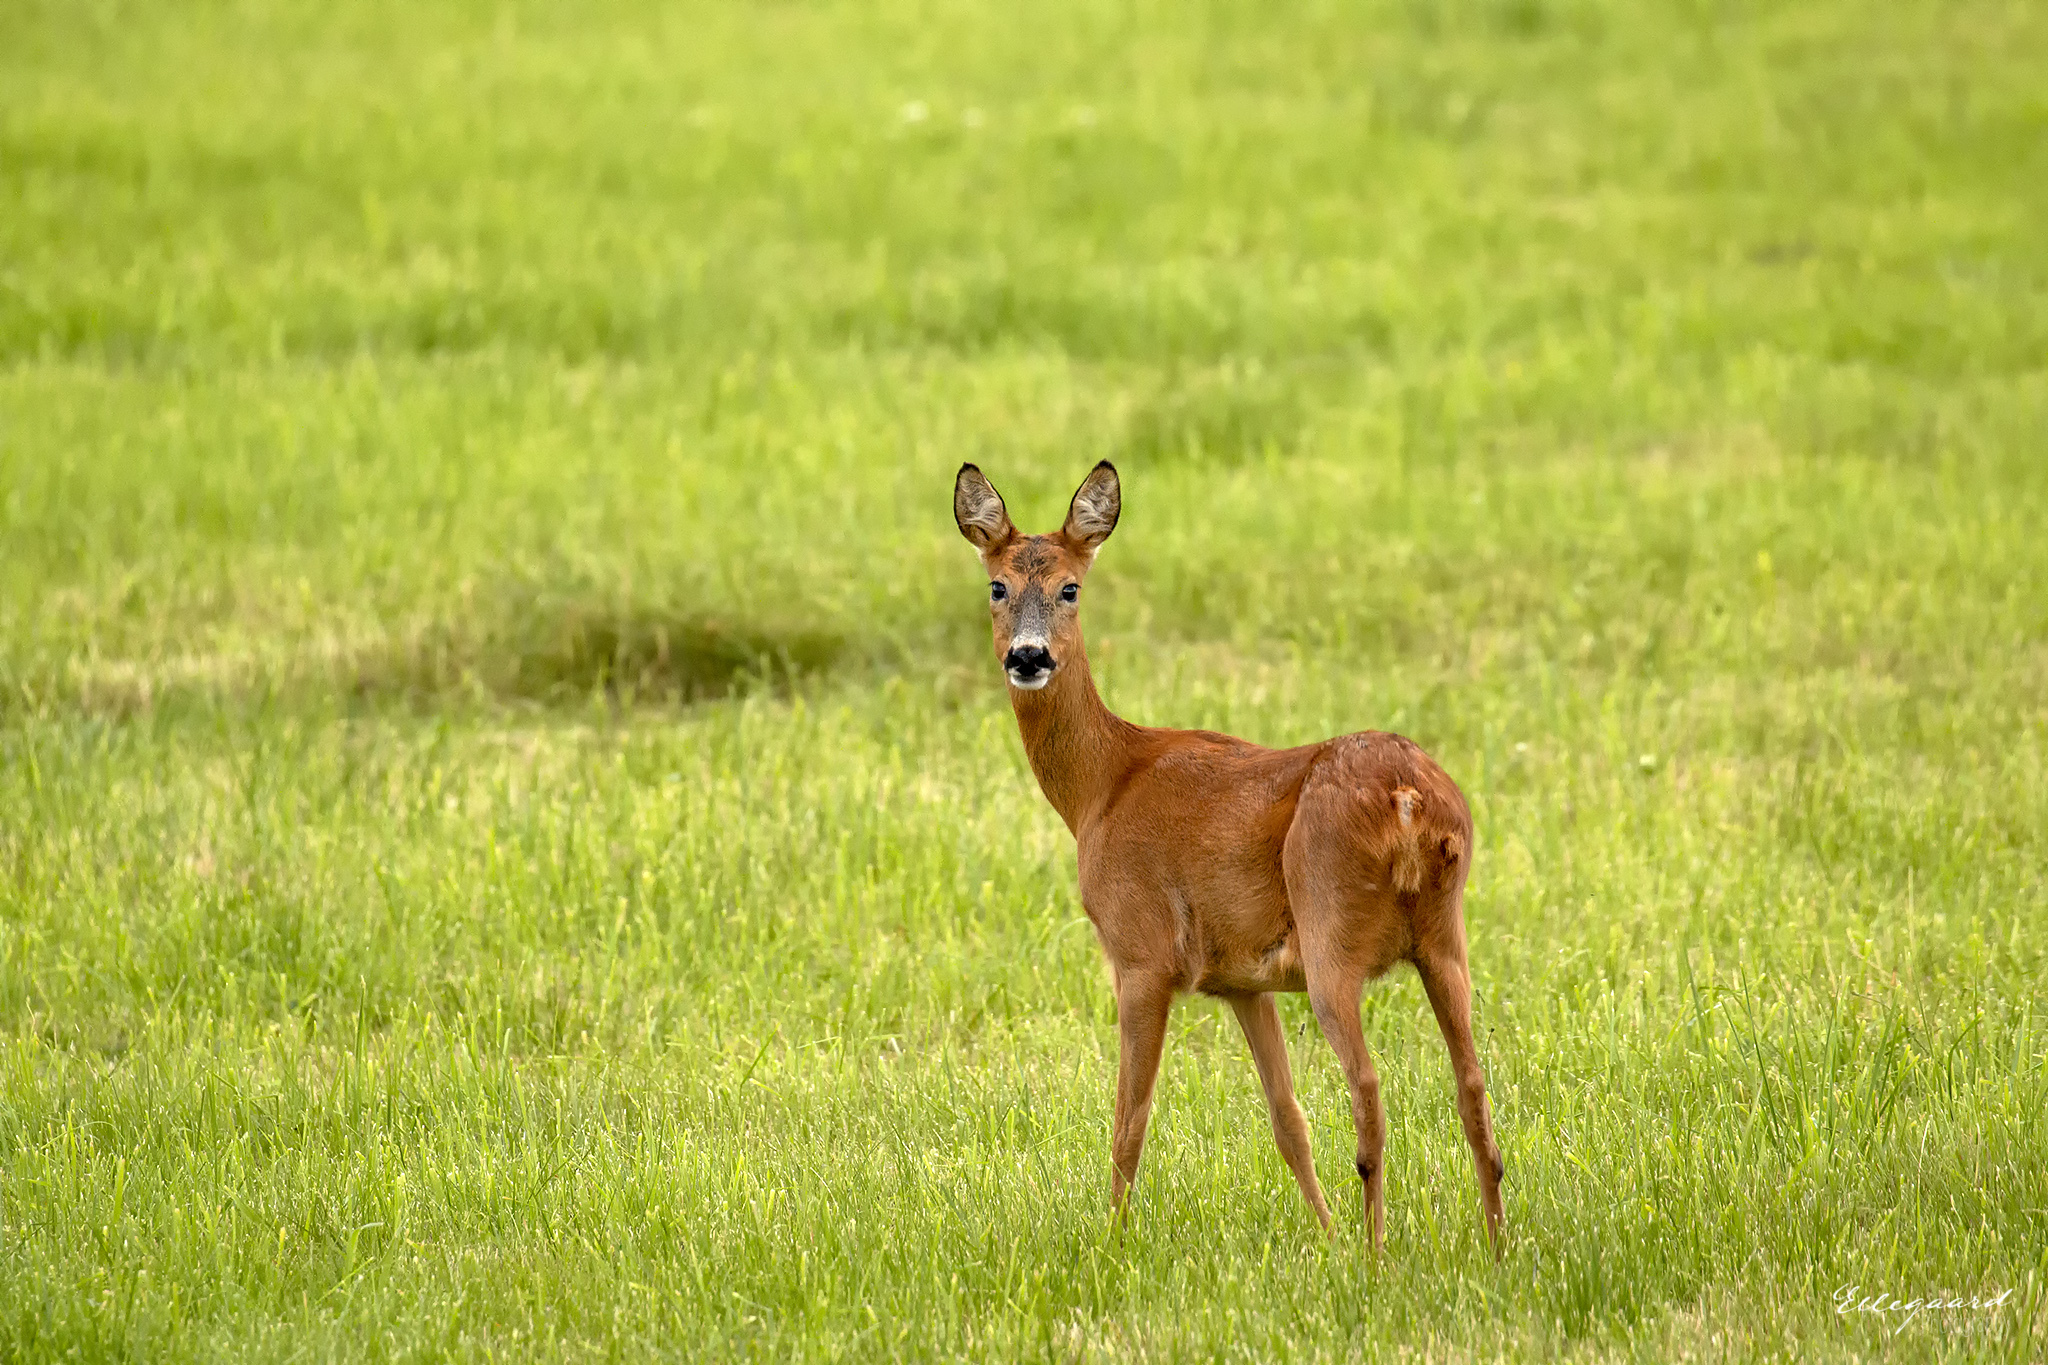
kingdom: Animalia
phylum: Chordata
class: Mammalia
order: Artiodactyla
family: Cervidae
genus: Capreolus
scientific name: Capreolus capreolus
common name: Western roe deer
